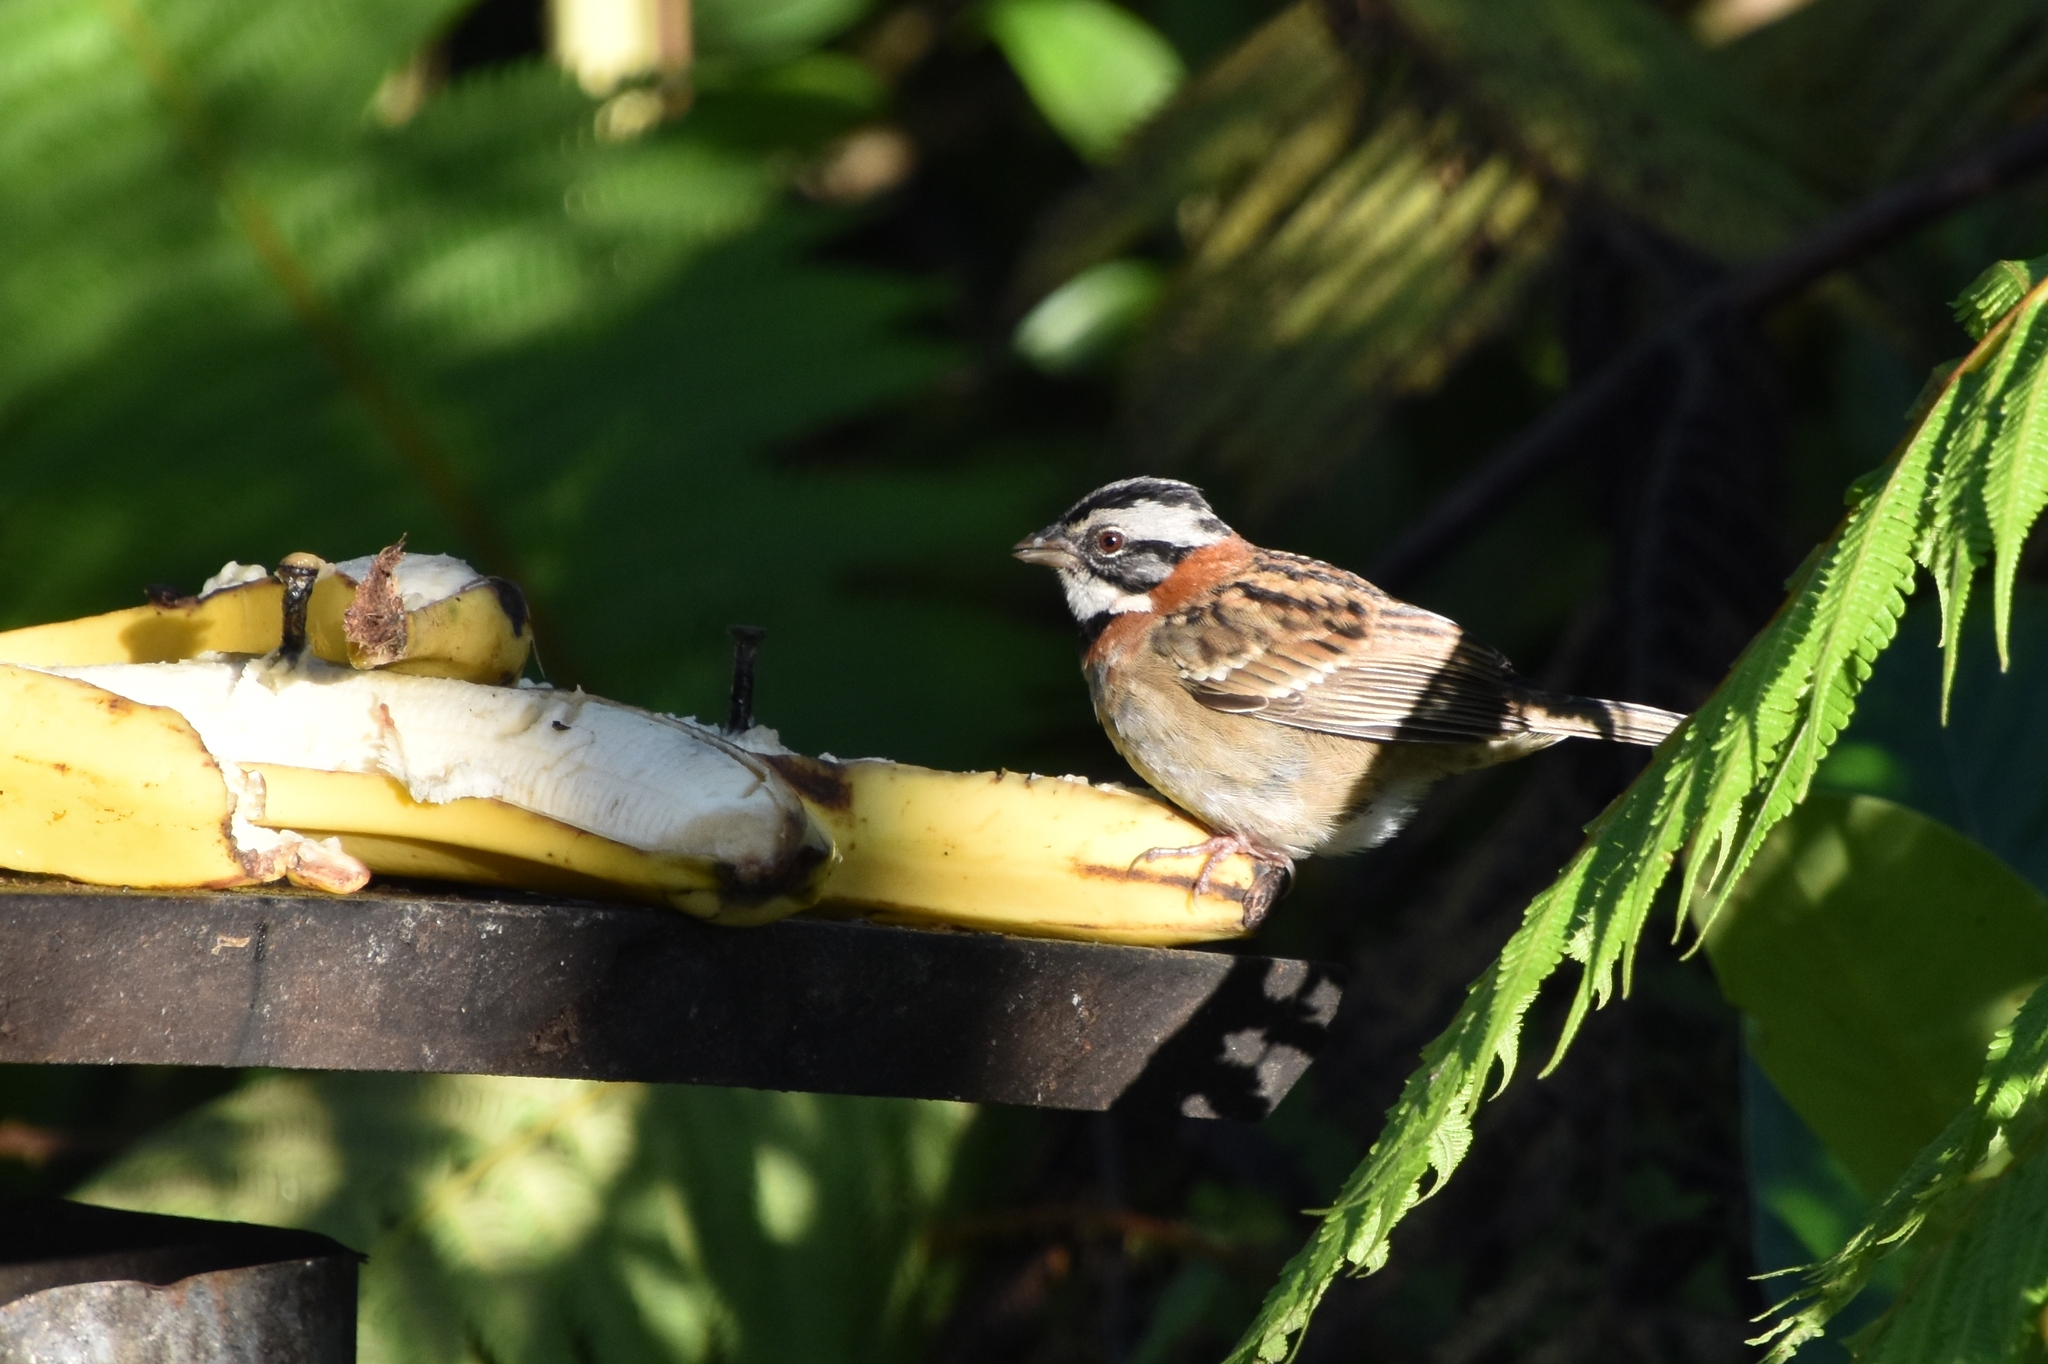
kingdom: Animalia
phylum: Chordata
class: Aves
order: Passeriformes
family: Passerellidae
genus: Zonotrichia
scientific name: Zonotrichia capensis
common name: Rufous-collared sparrow
